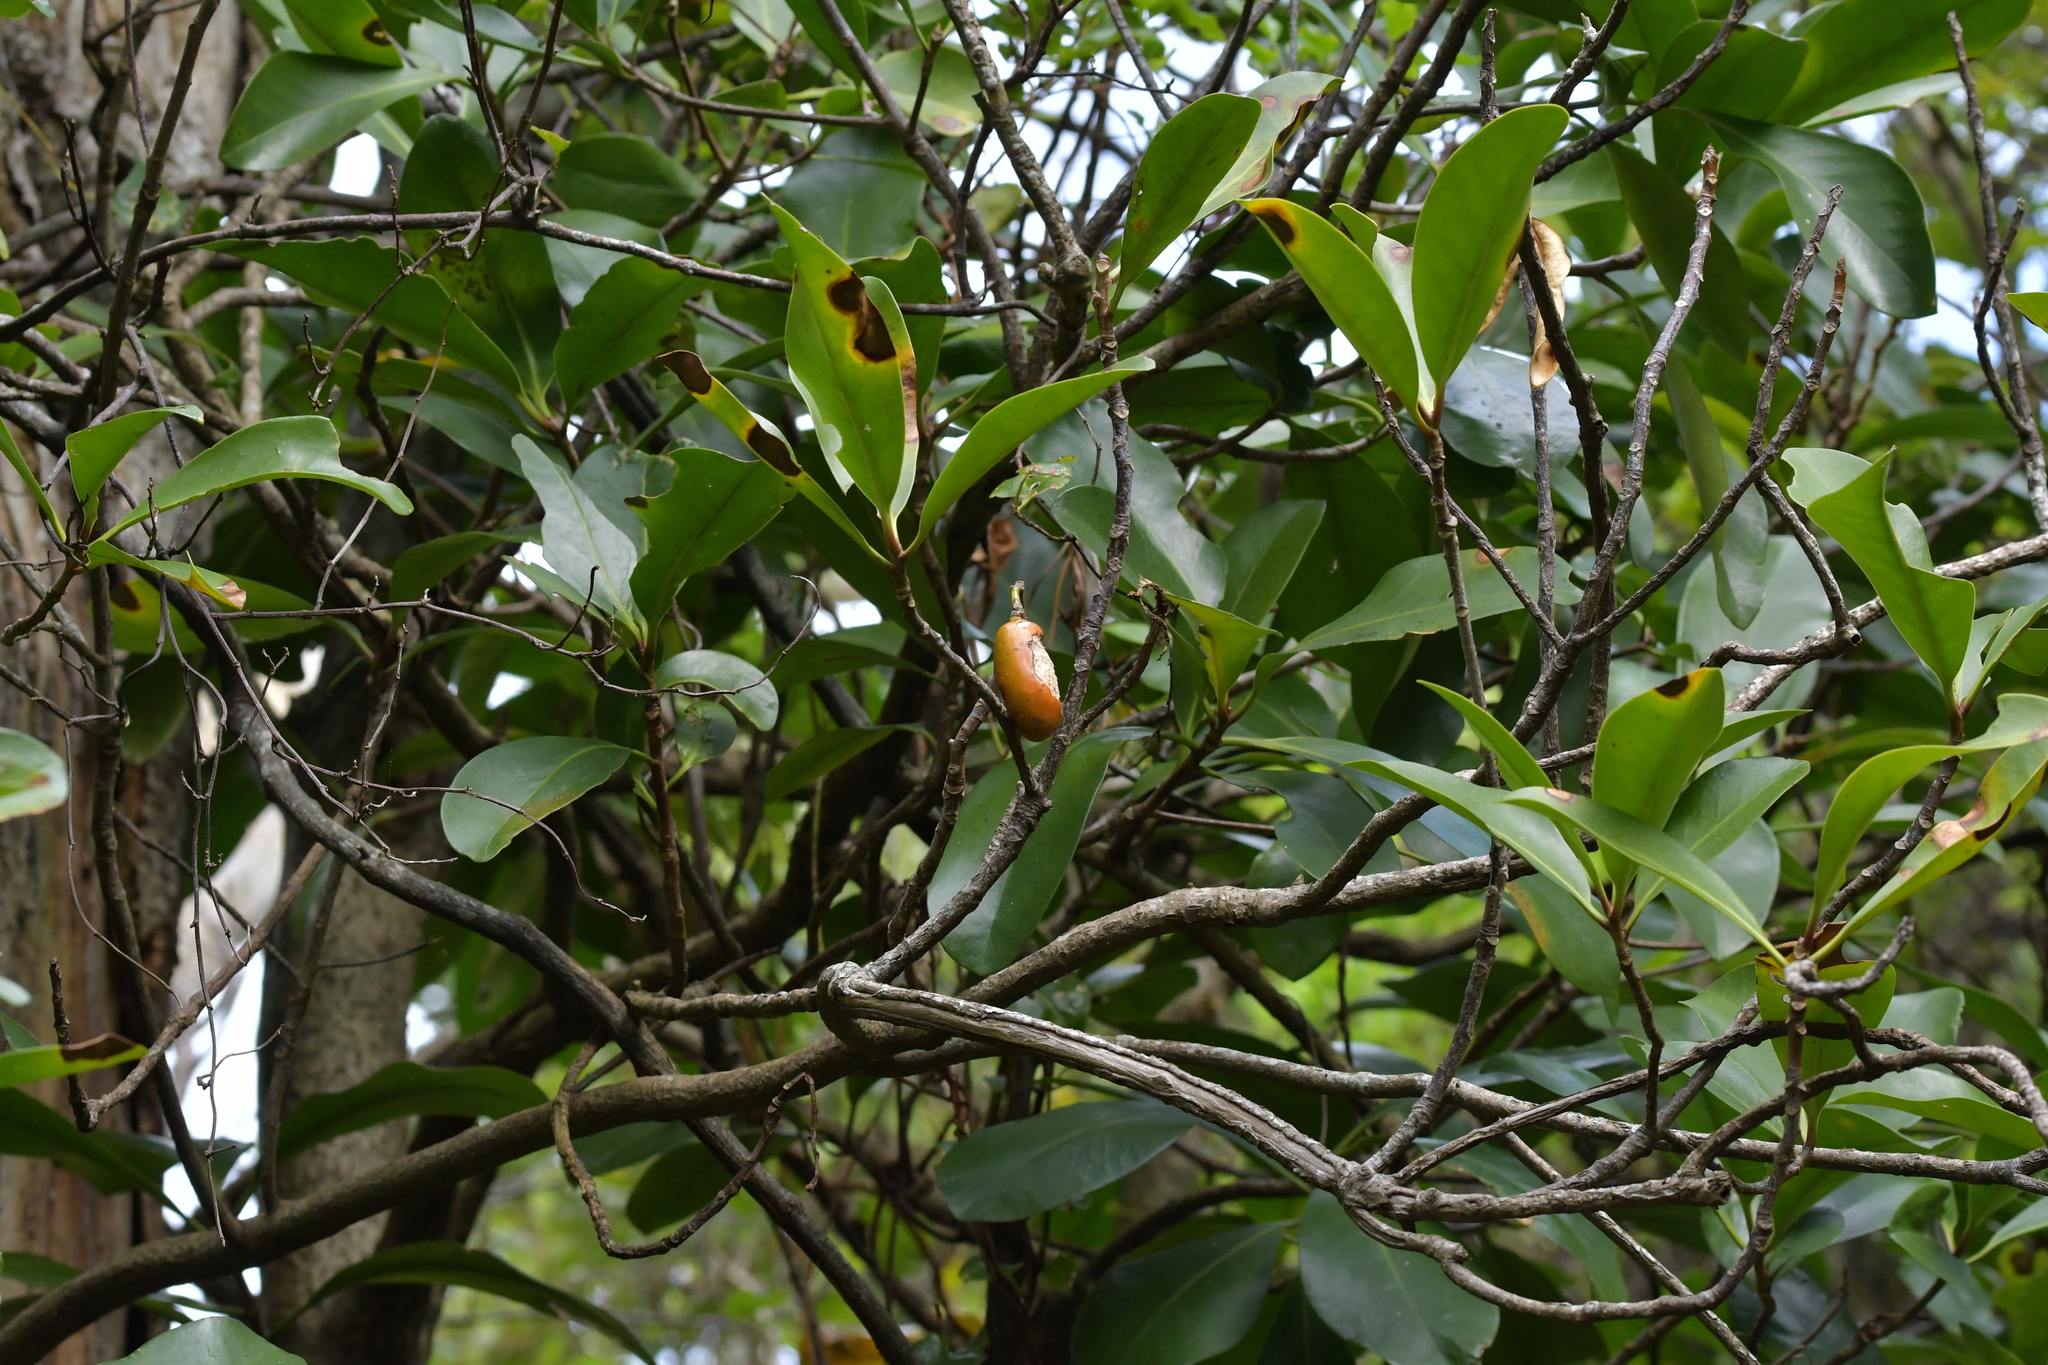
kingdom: Plantae
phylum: Tracheophyta
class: Magnoliopsida
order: Cucurbitales
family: Corynocarpaceae
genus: Corynocarpus
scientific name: Corynocarpus laevigatus
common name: New zealand laurel
